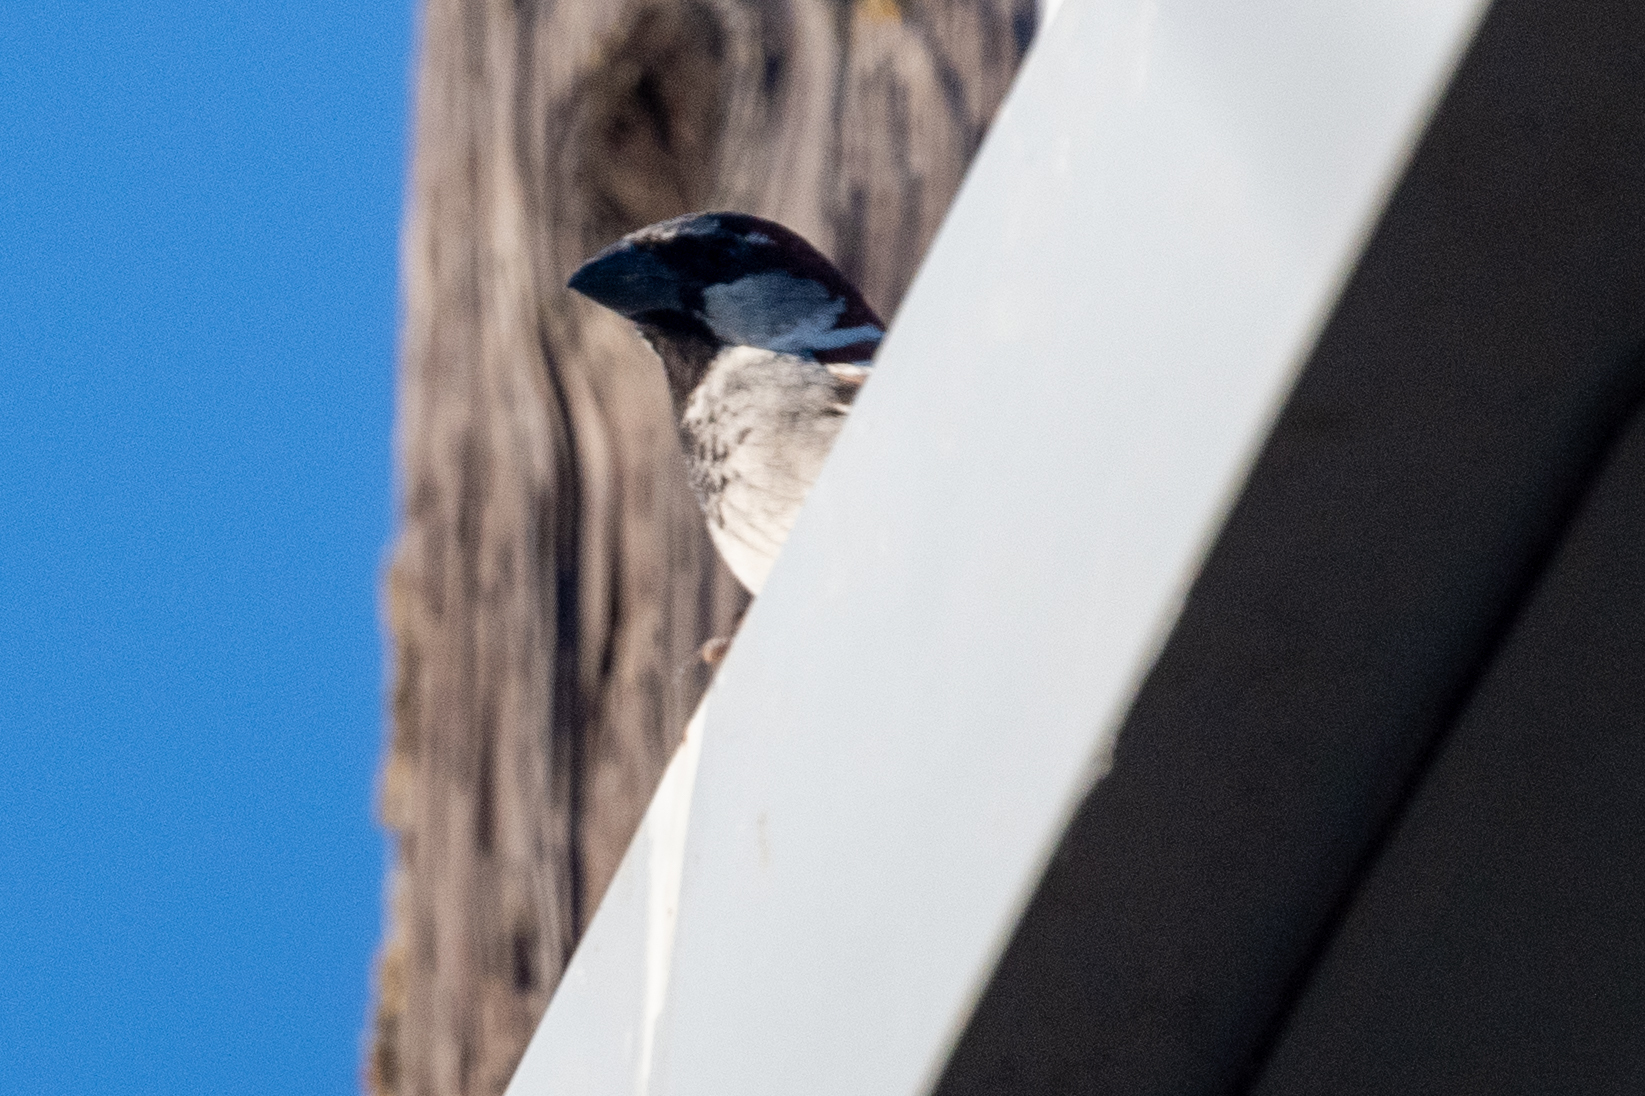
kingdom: Animalia
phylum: Chordata
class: Aves
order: Passeriformes
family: Passeridae
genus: Passer
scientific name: Passer domesticus
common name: House sparrow
